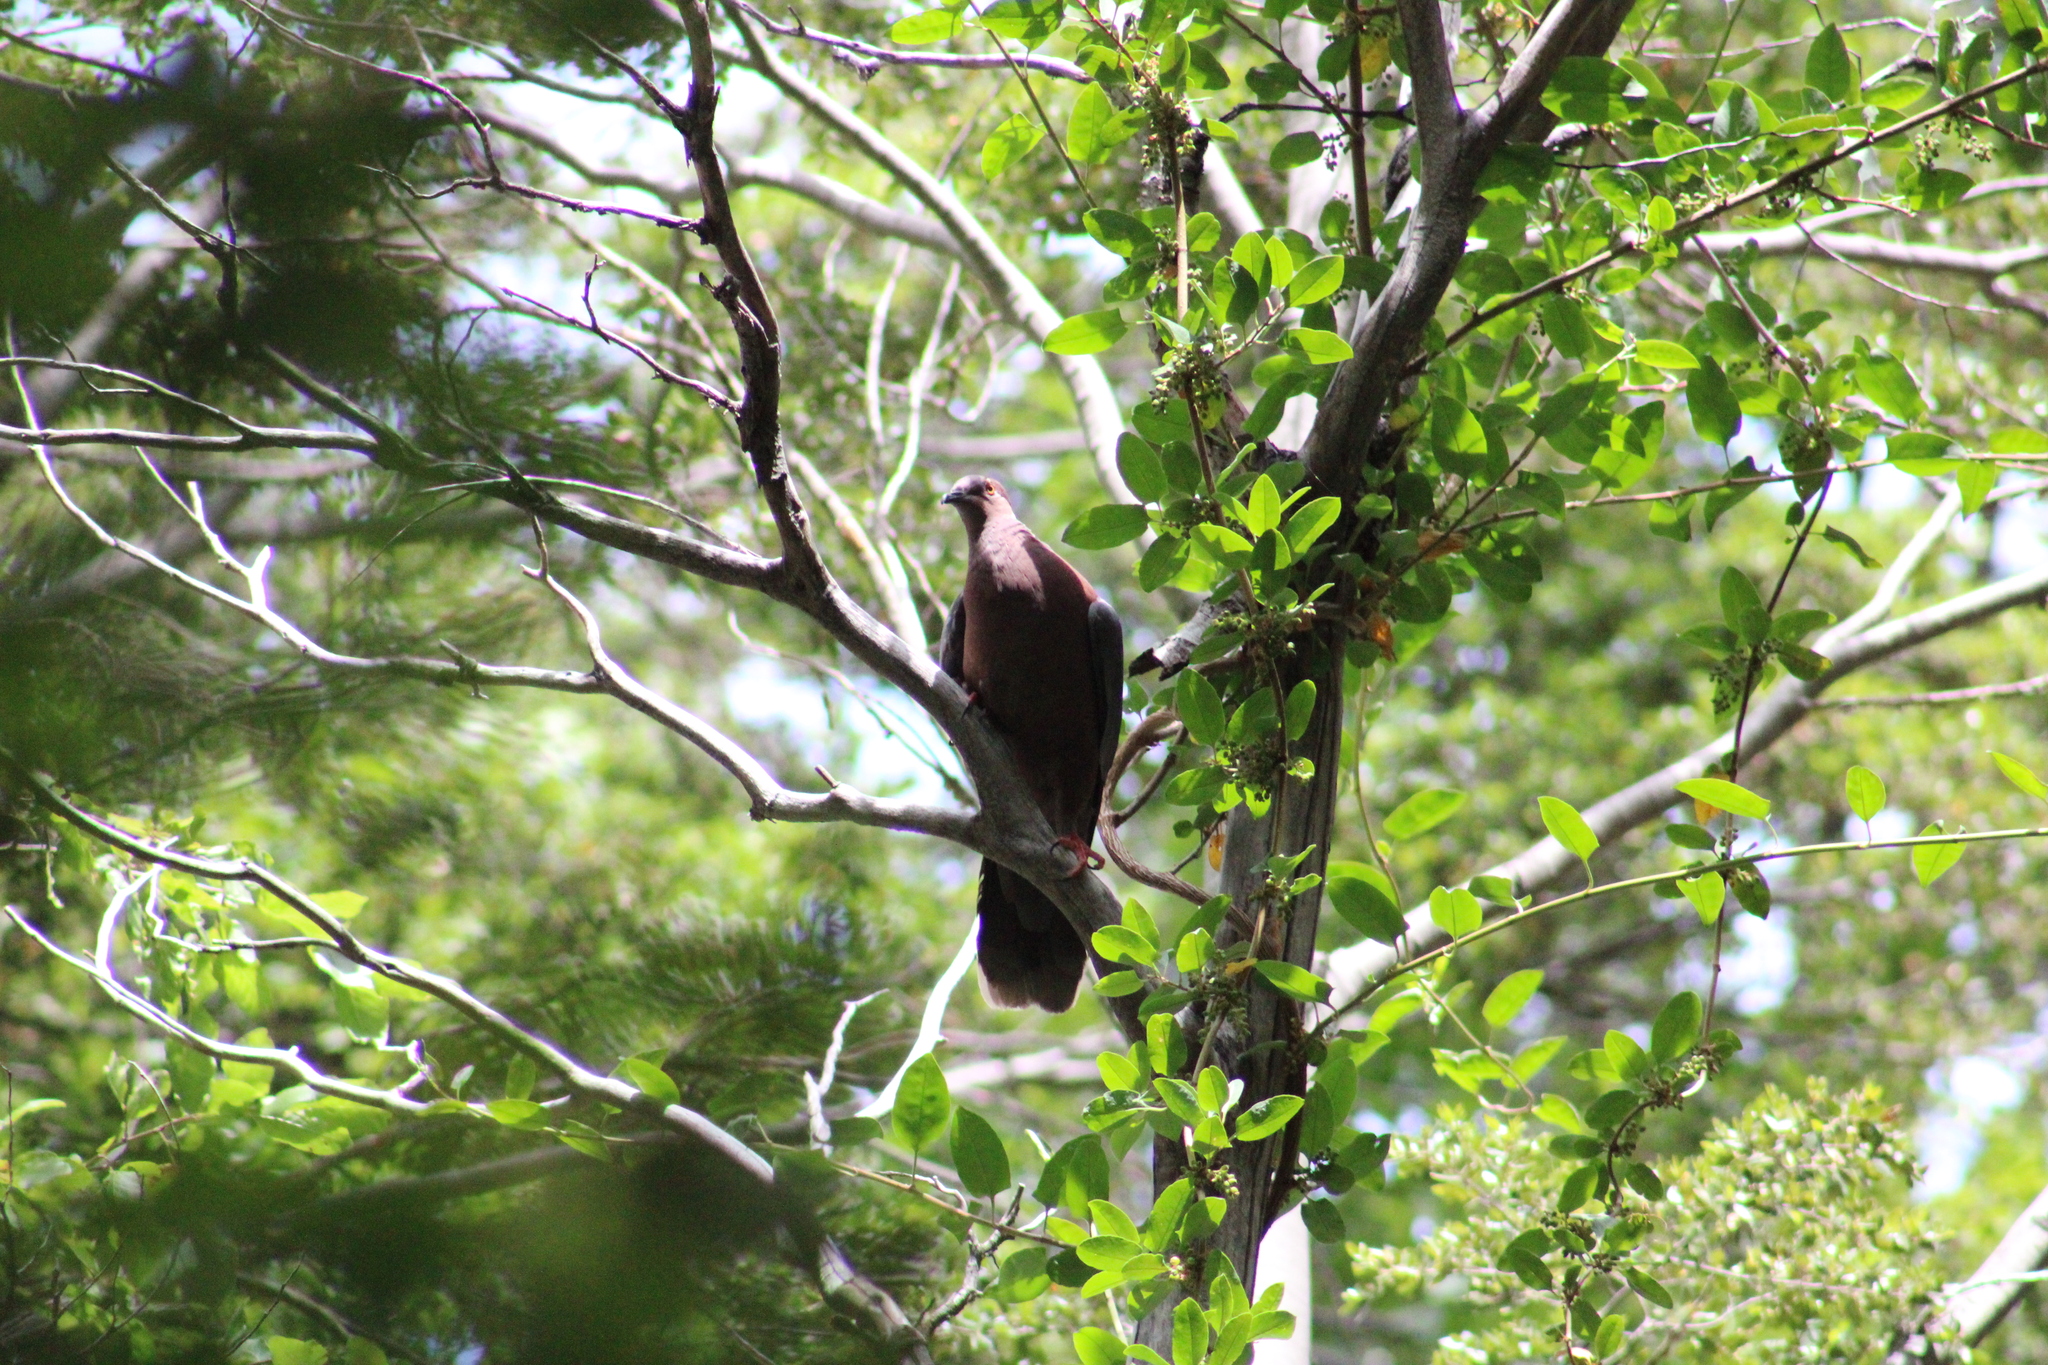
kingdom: Animalia
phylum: Chordata
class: Aves
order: Columbiformes
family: Columbidae
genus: Patagioenas
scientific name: Patagioenas araucana
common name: Chilean pigeon
